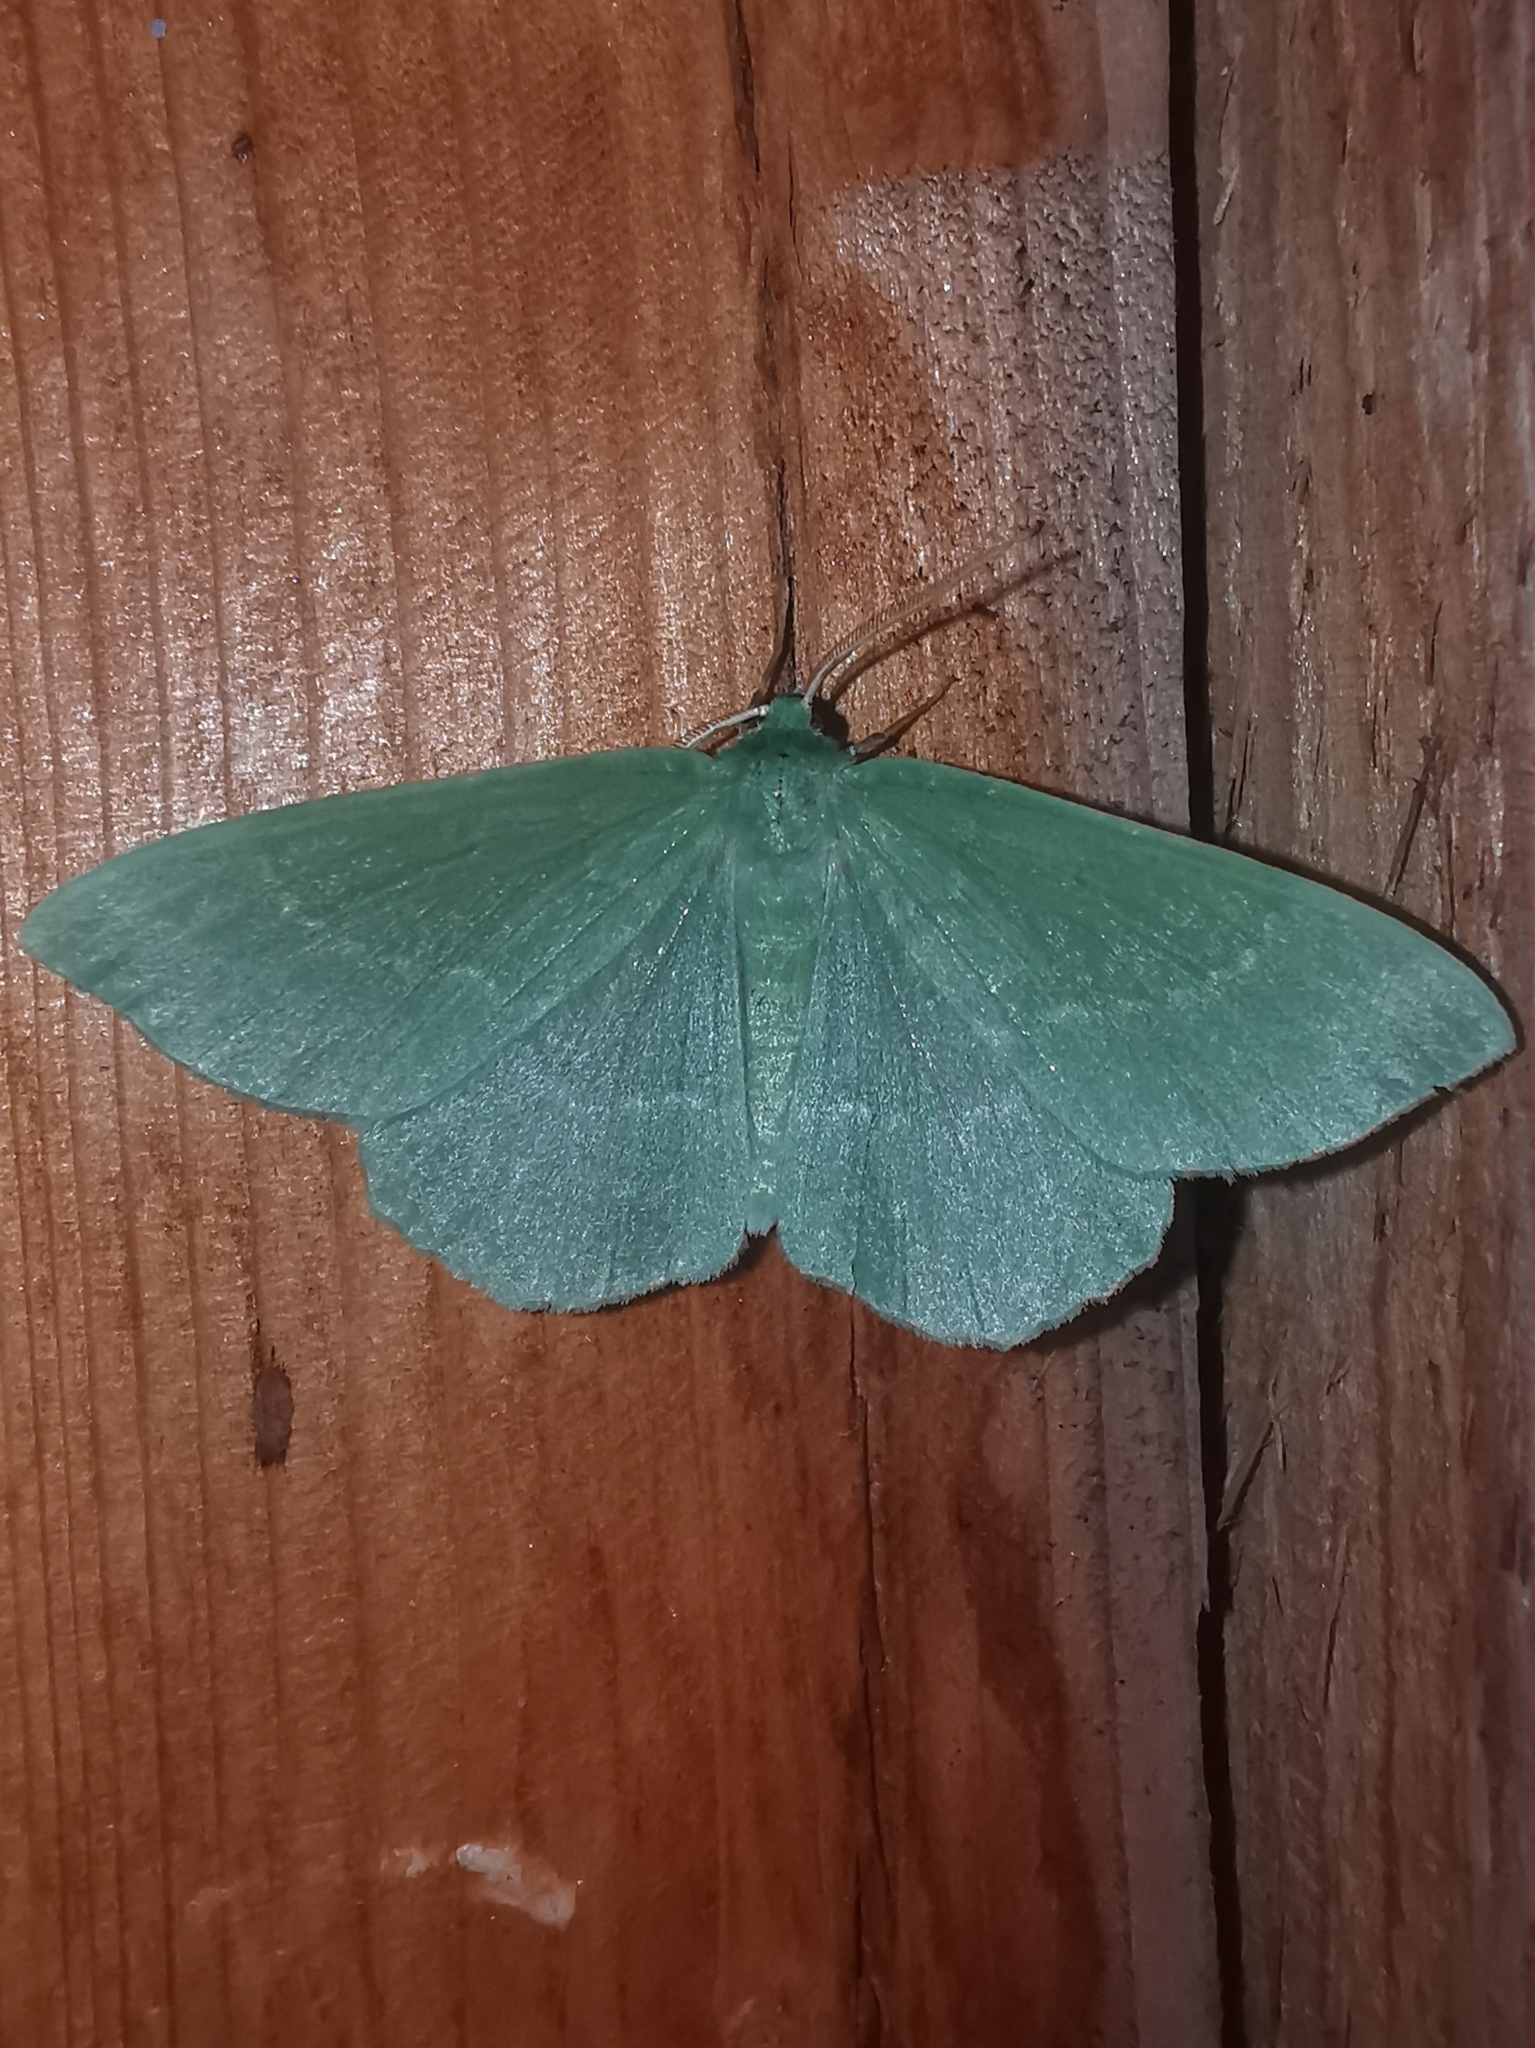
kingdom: Animalia
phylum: Arthropoda
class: Insecta
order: Lepidoptera
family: Geometridae
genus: Geometra
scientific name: Geometra papilionaria
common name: Large emerald
